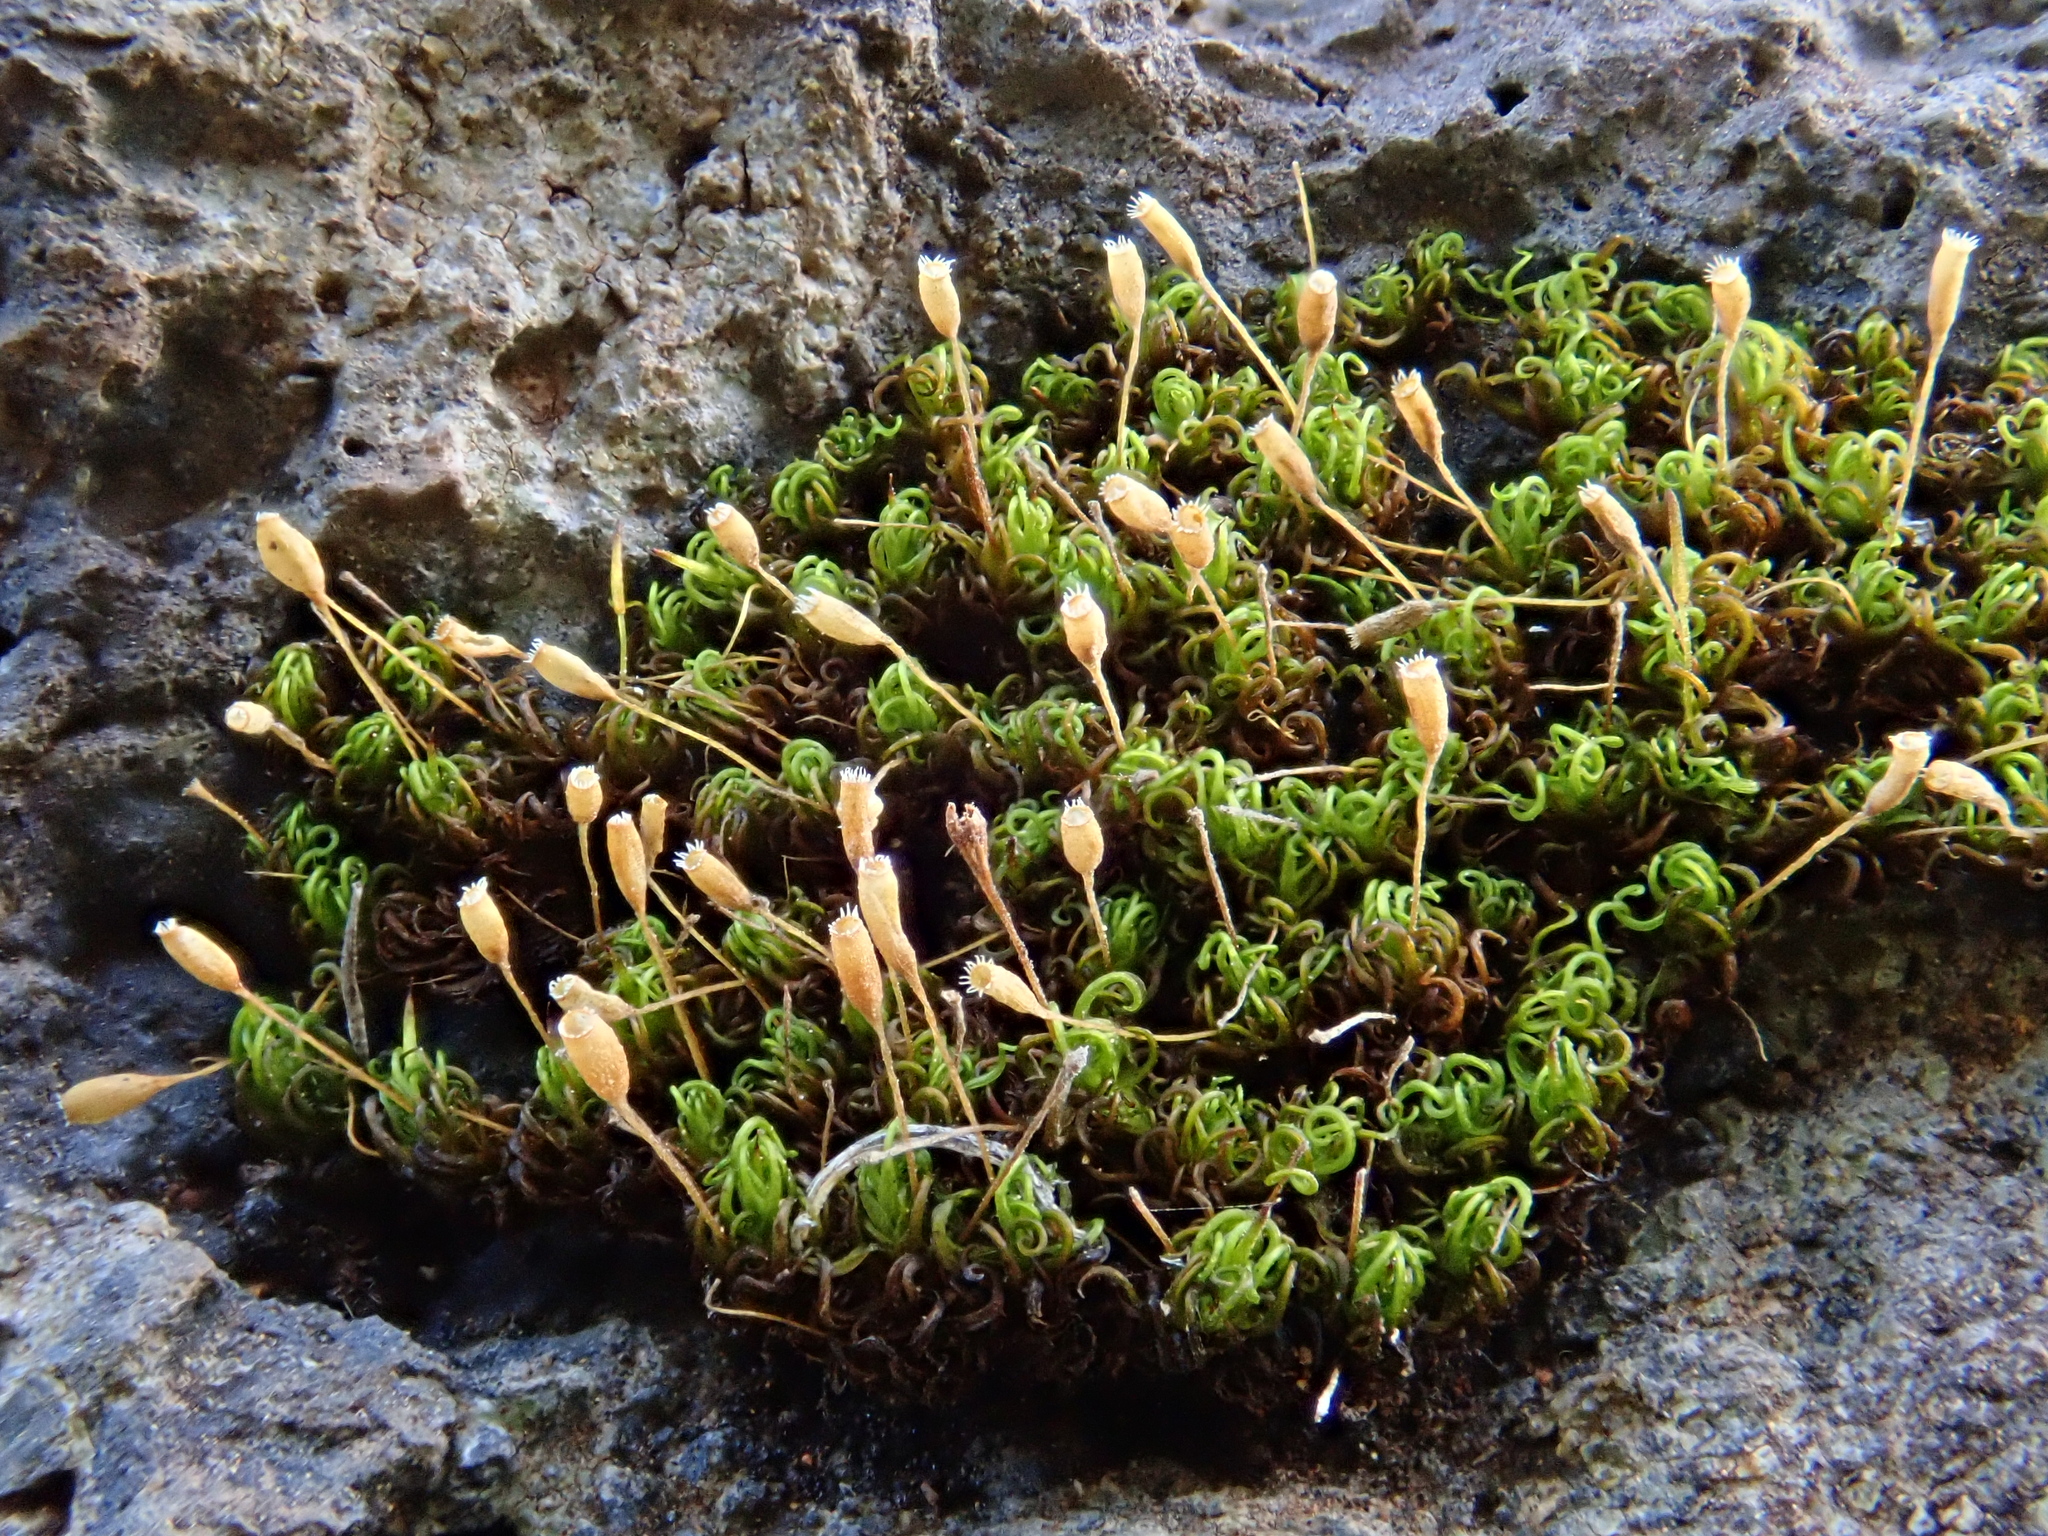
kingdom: Plantae
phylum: Bryophyta
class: Bryopsida
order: Grimmiales
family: Ptychomitriaceae
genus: Ptychomitrium
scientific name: Ptychomitrium nigrescens
